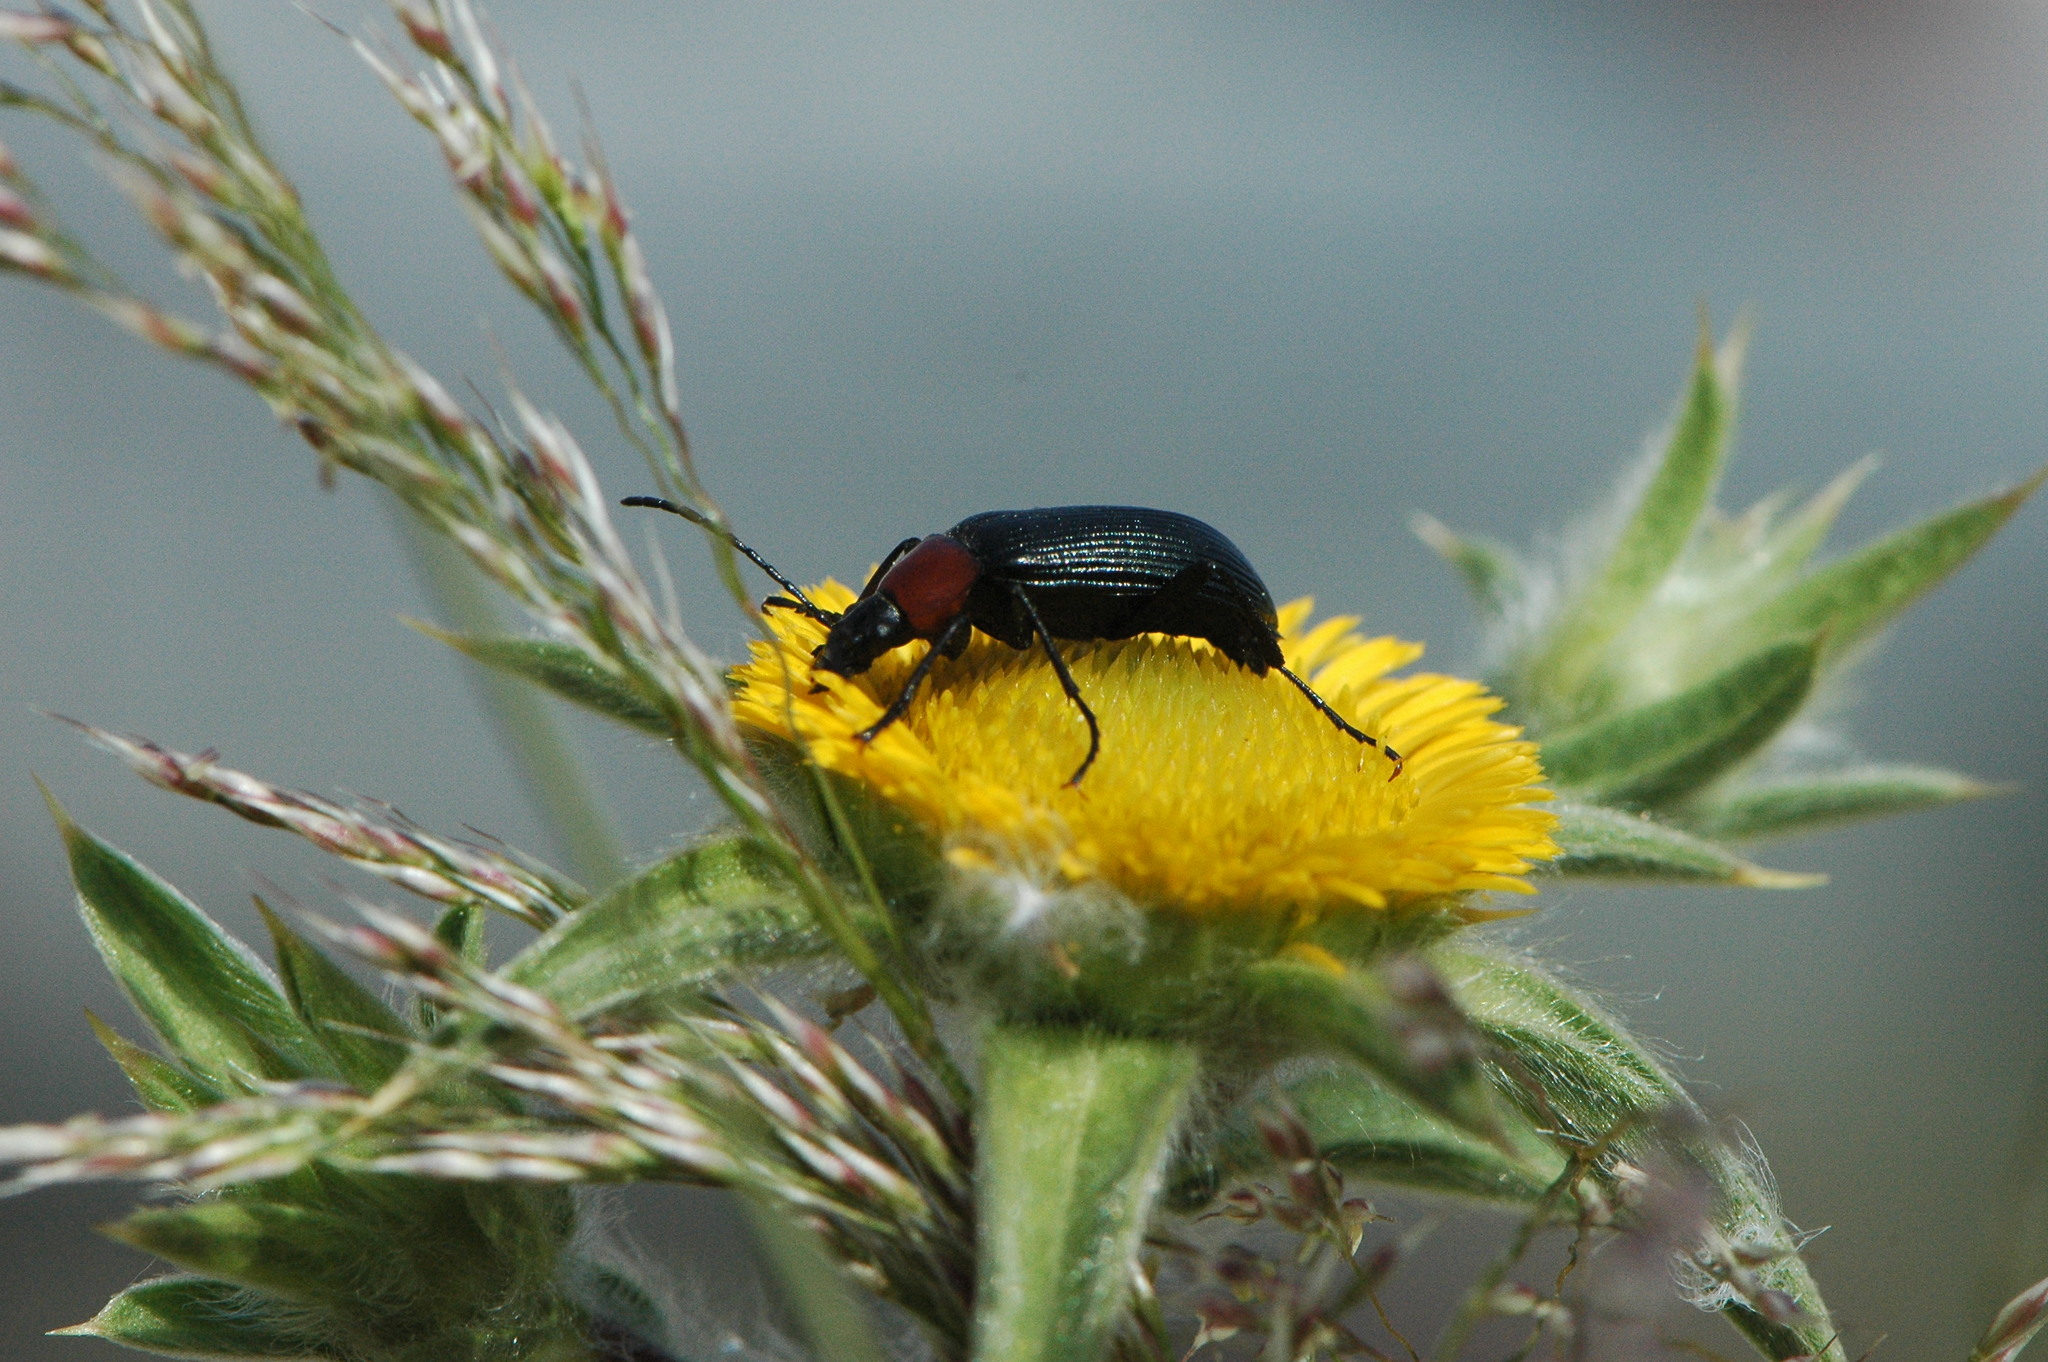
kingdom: Animalia
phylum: Arthropoda
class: Insecta
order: Coleoptera
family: Tenebrionidae
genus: Heliotaurus
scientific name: Heliotaurus ruficollis
